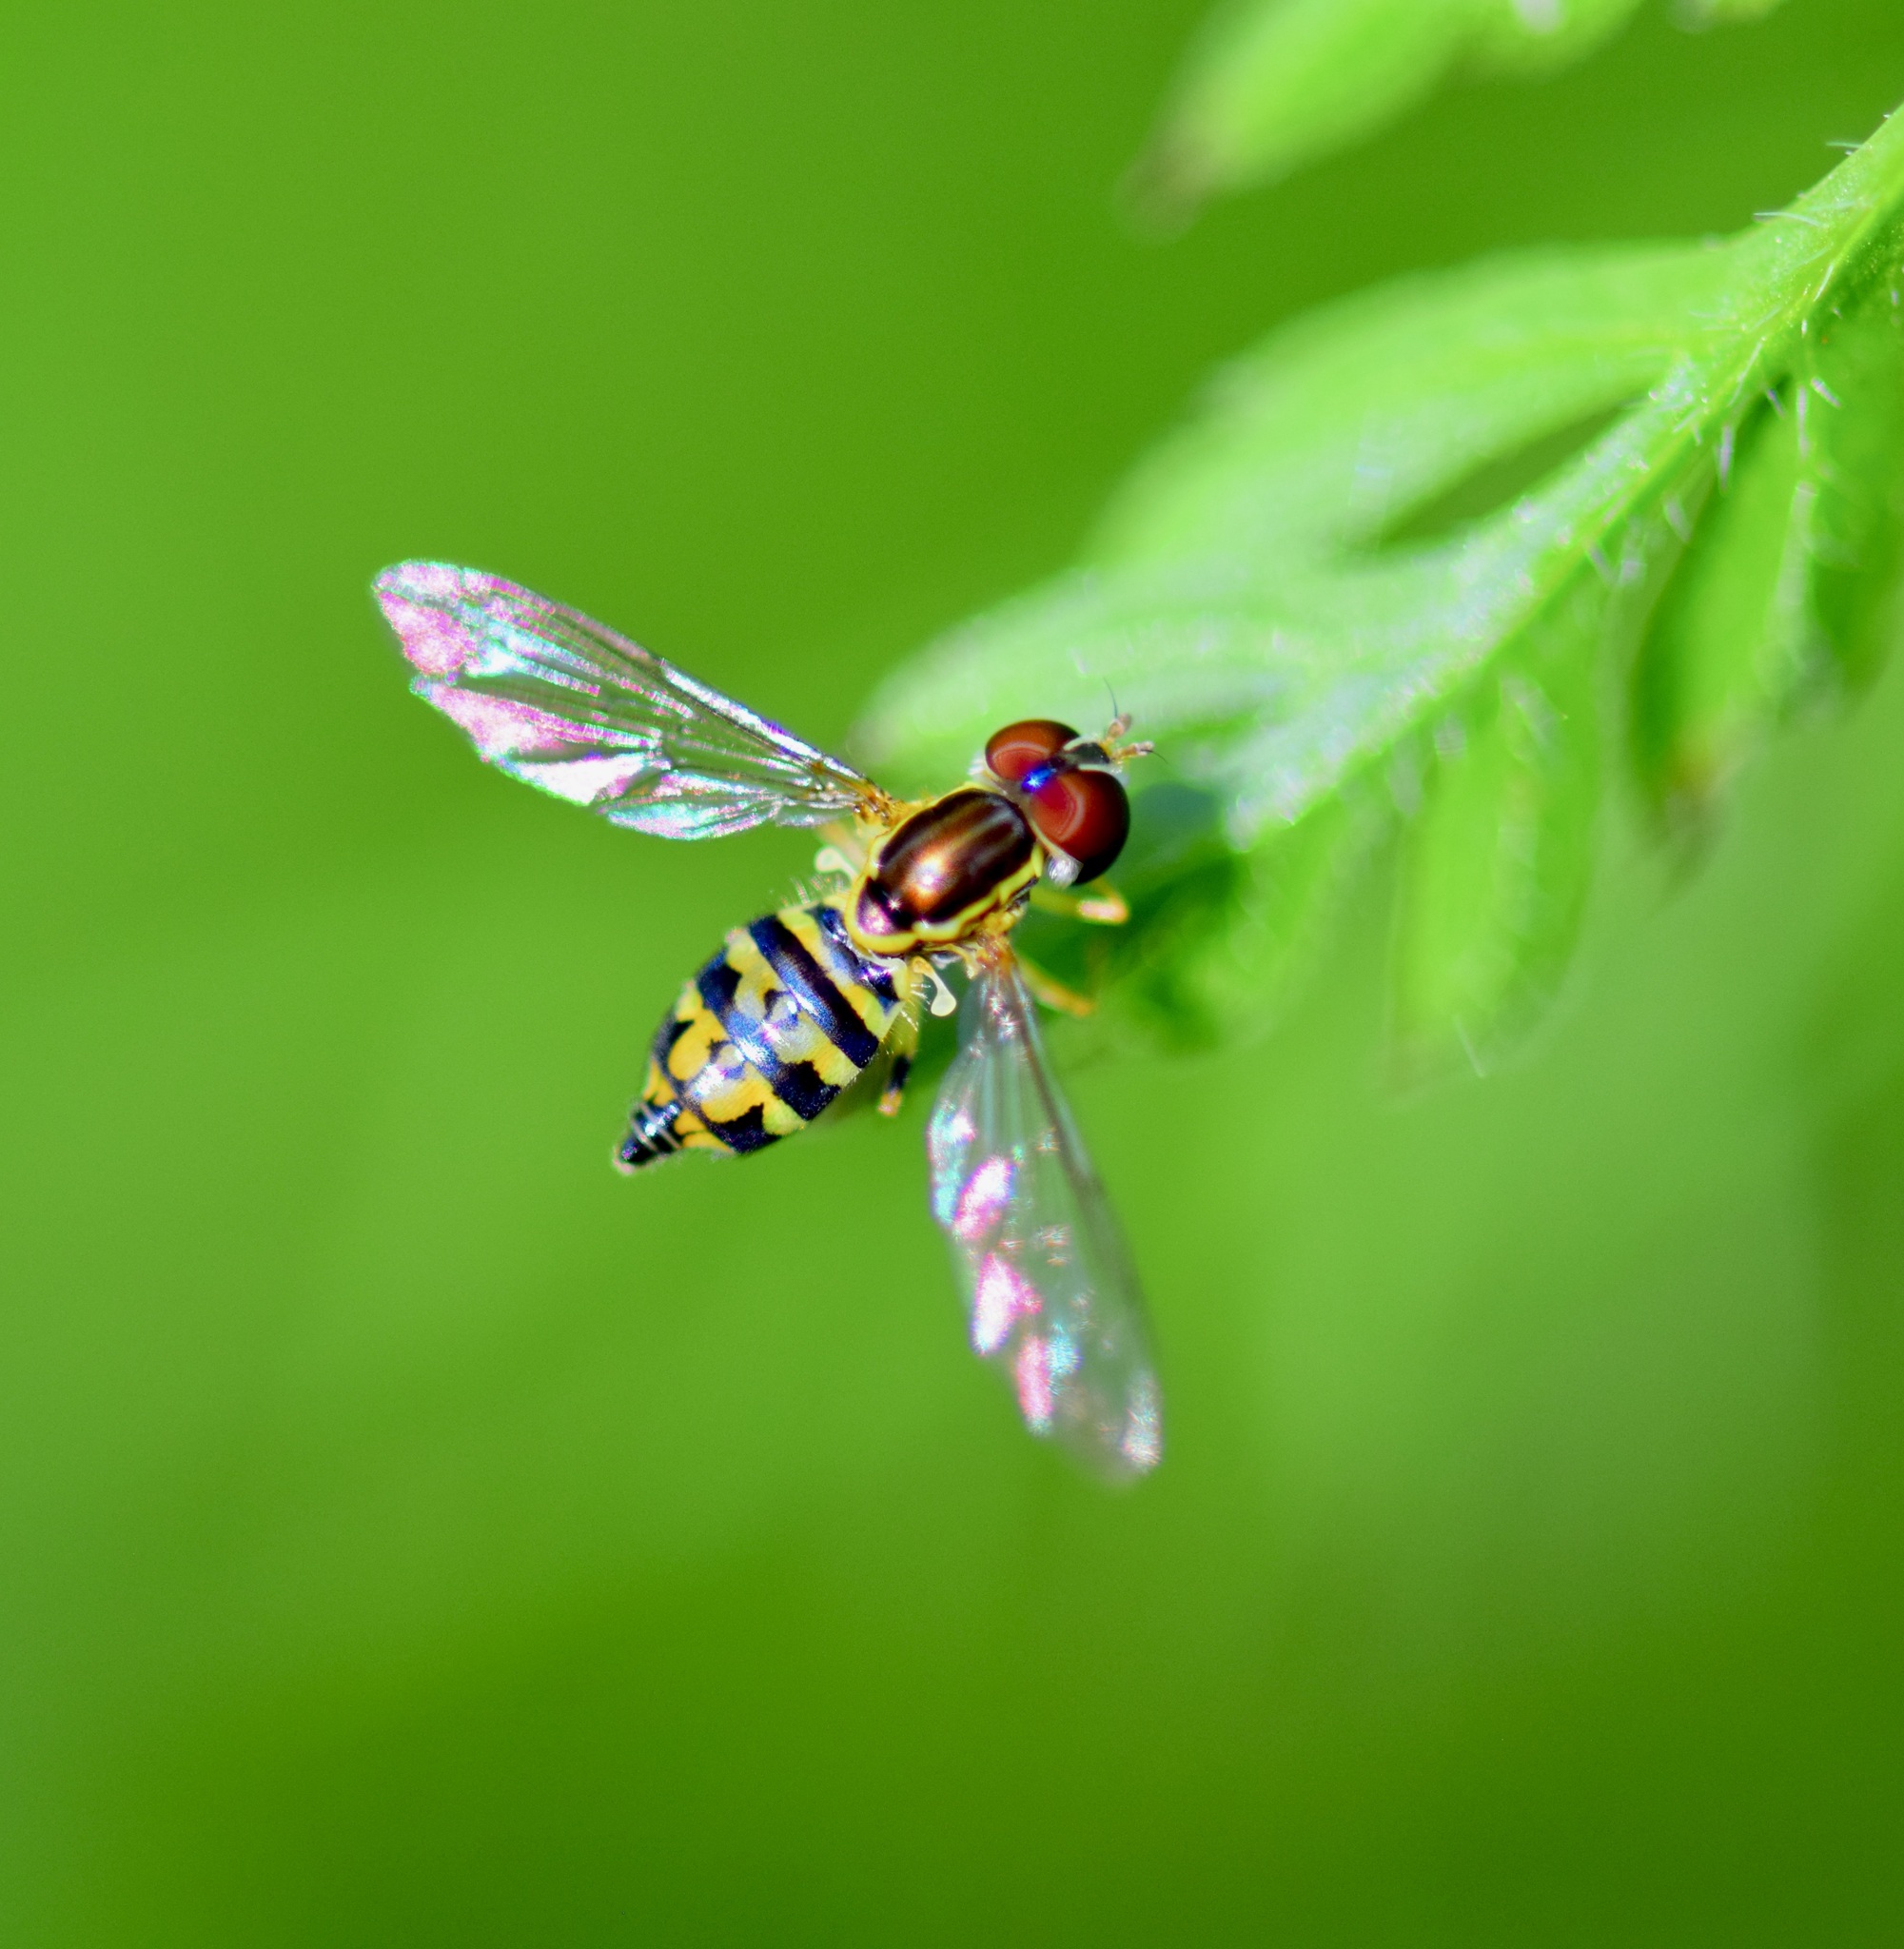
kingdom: Animalia
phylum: Arthropoda
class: Insecta
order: Diptera
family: Syrphidae
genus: Toxomerus
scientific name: Toxomerus geminatus
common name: Eastern calligrapher
